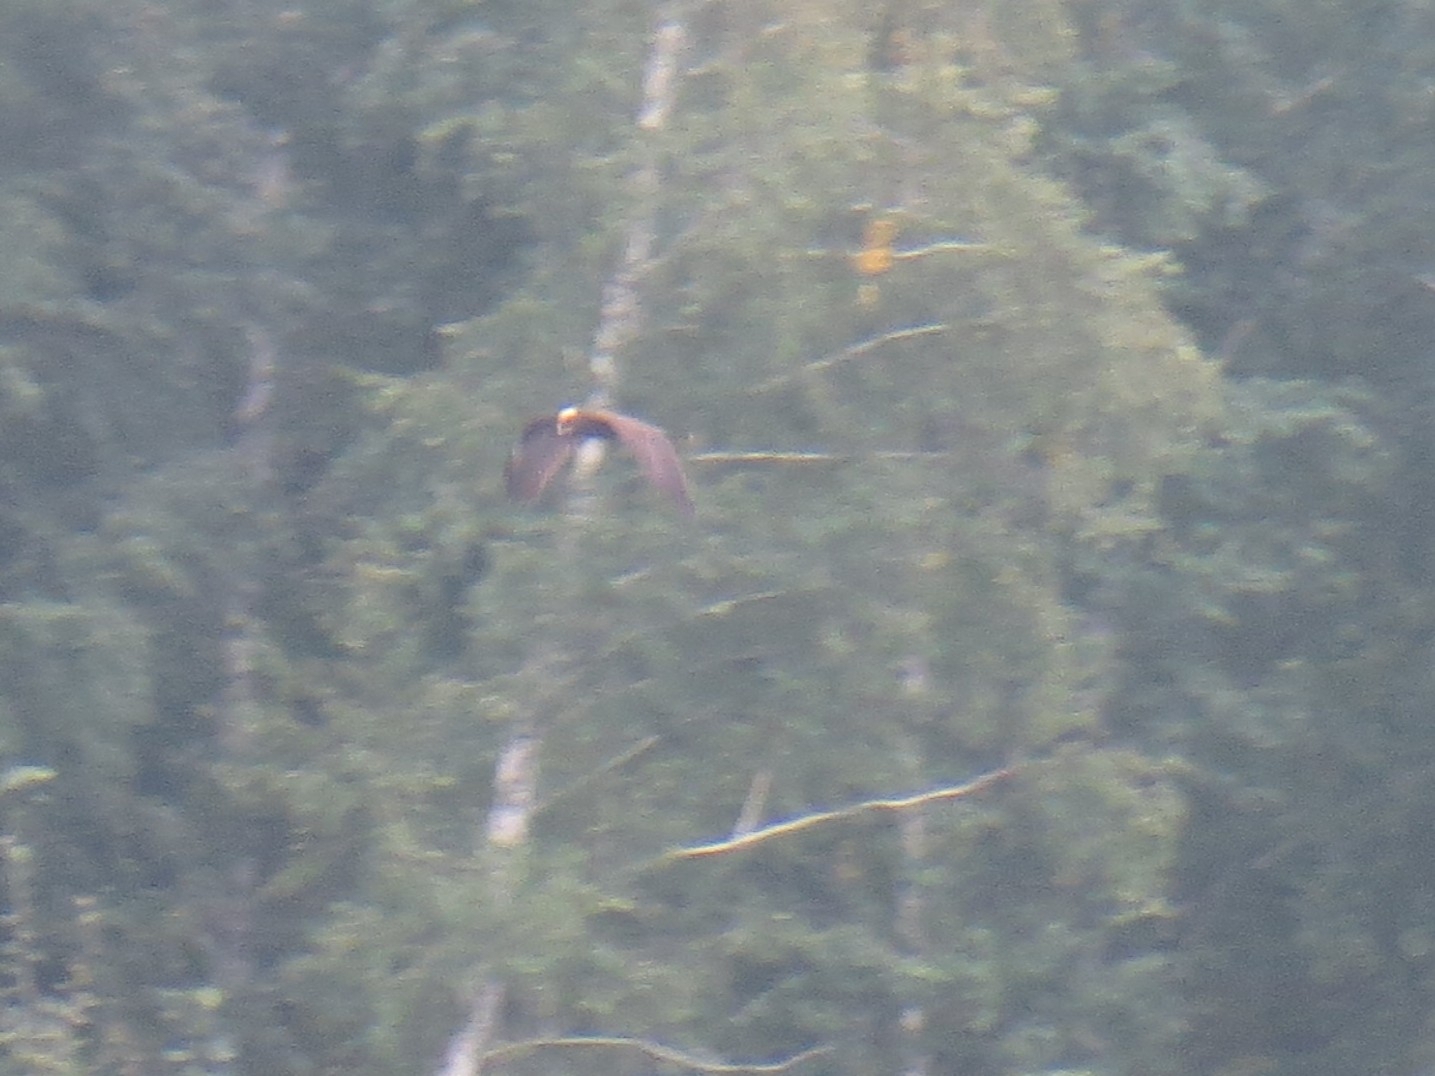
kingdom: Animalia
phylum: Chordata
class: Aves
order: Accipitriformes
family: Accipitridae
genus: Circus
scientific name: Circus aeruginosus
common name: Western marsh harrier
